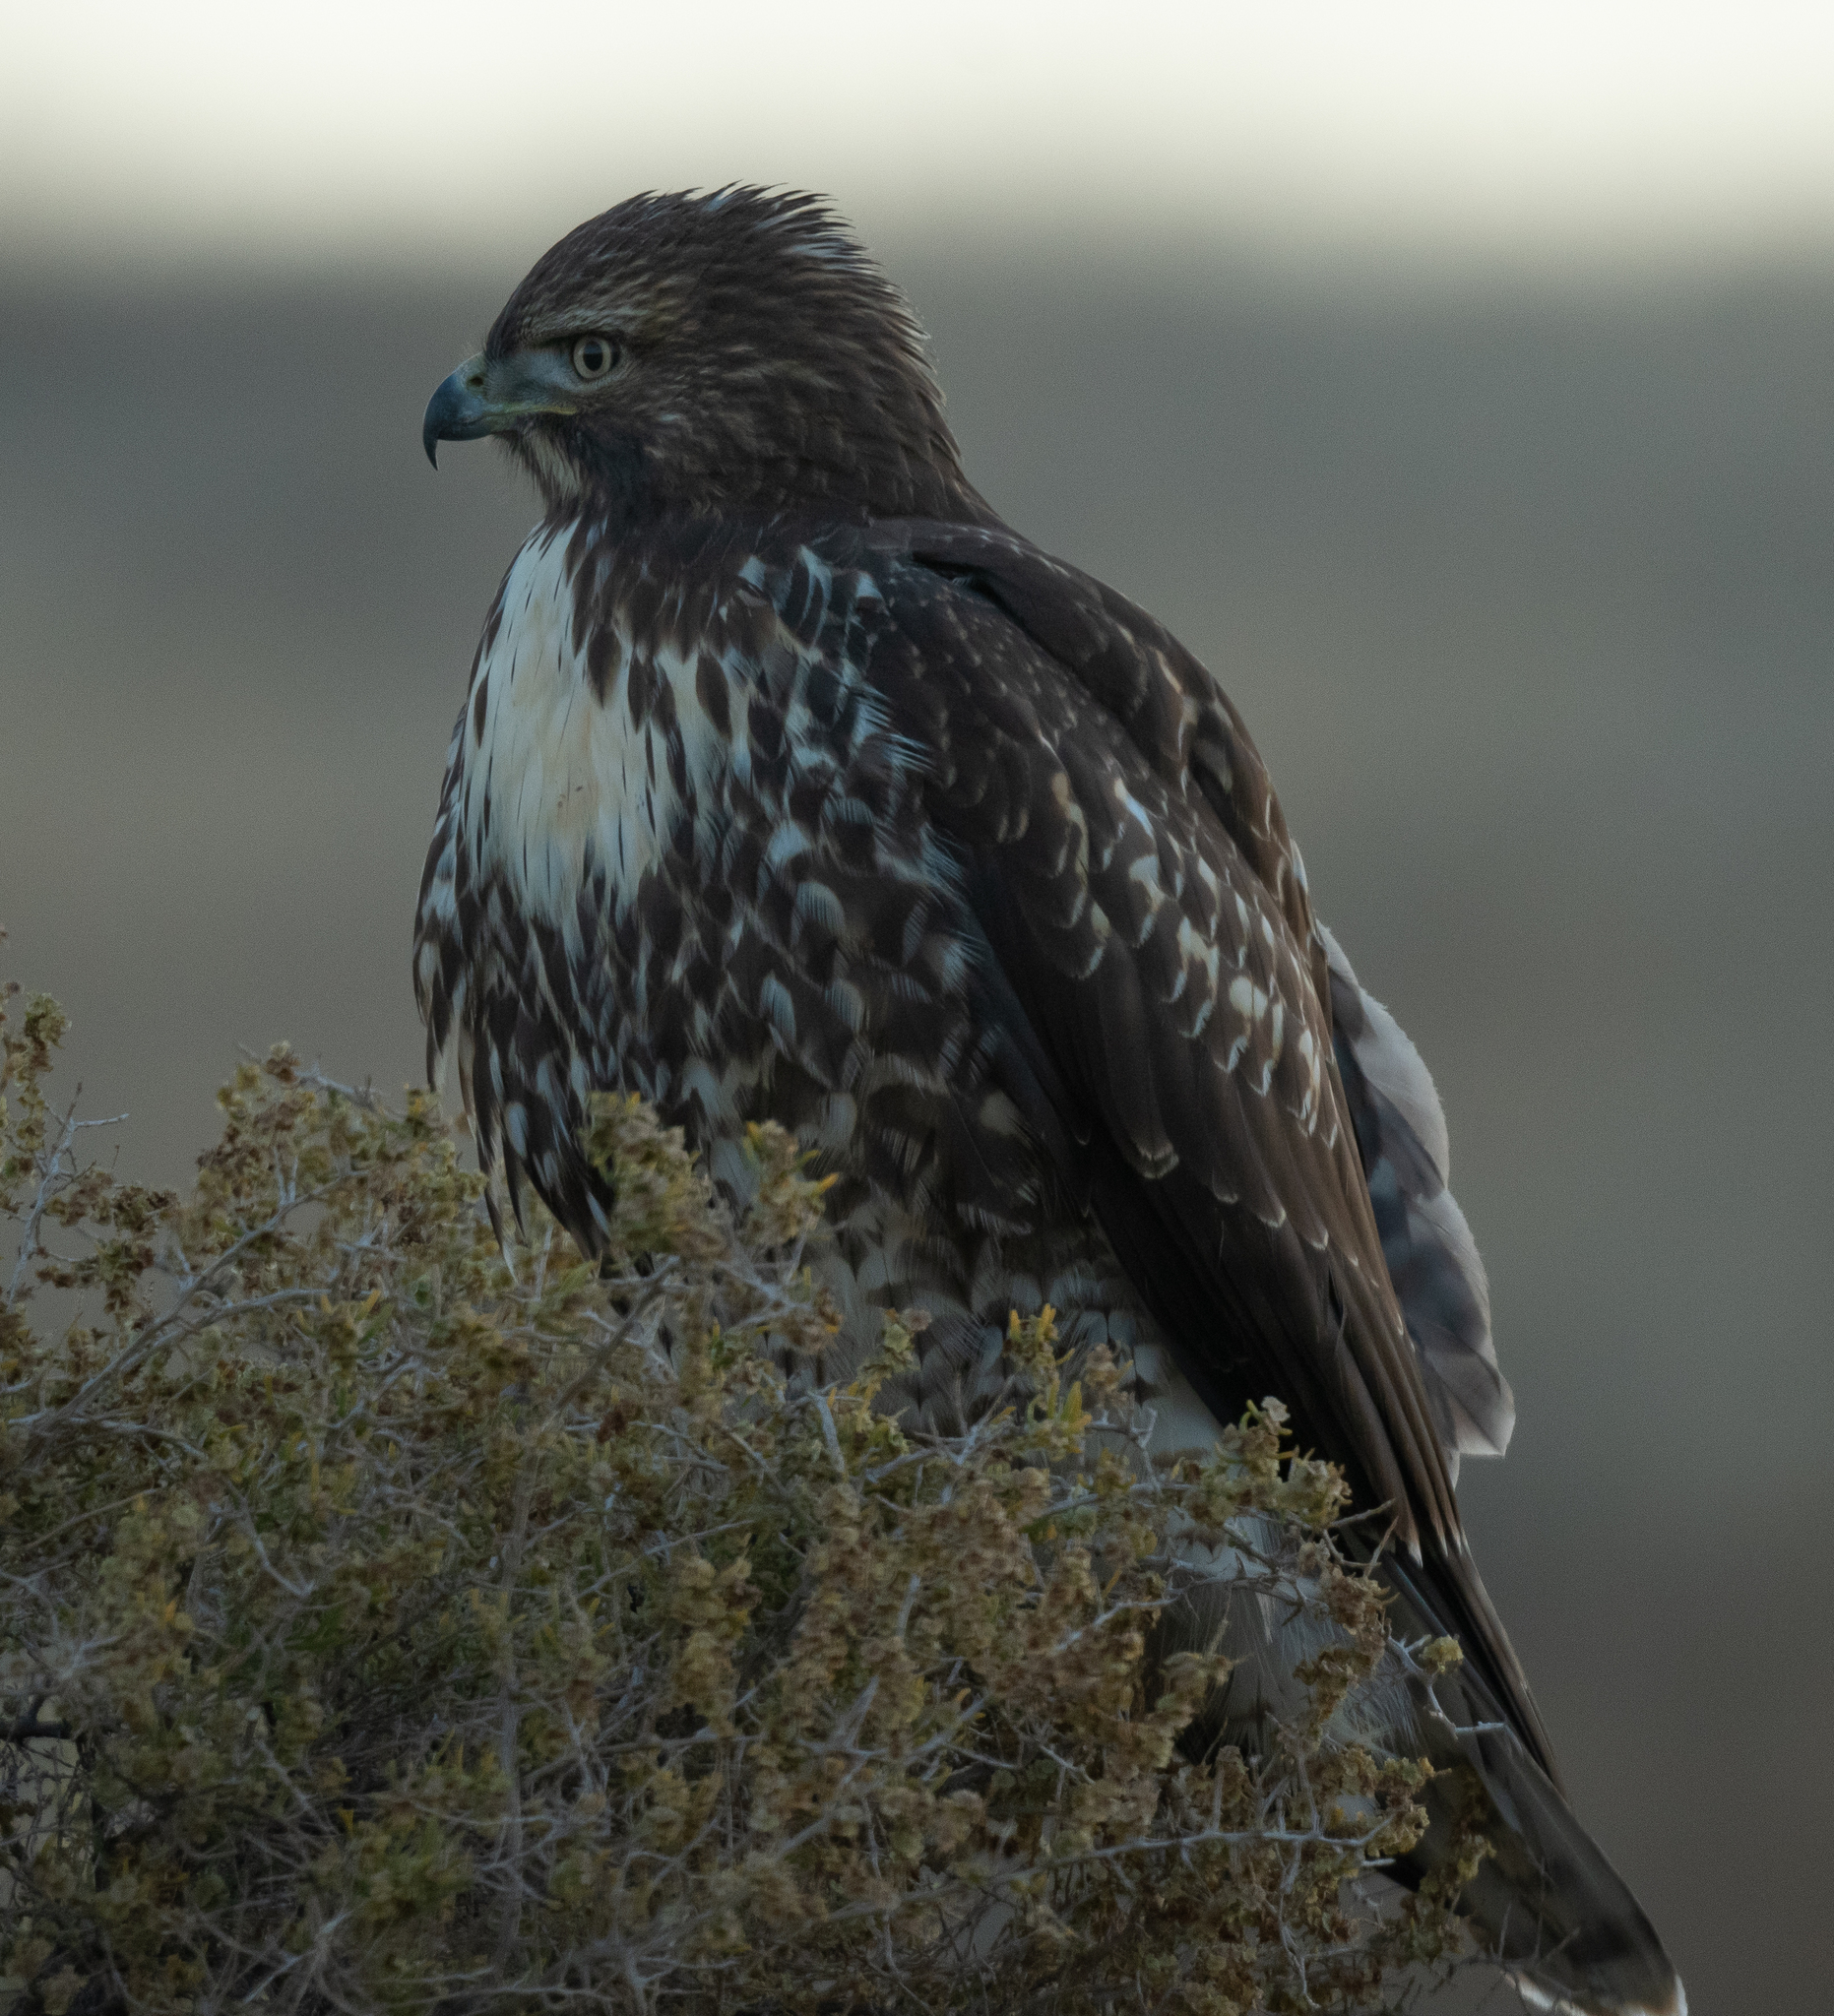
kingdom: Animalia
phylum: Chordata
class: Aves
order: Accipitriformes
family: Accipitridae
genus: Buteo
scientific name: Buteo jamaicensis
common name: Red-tailed hawk
